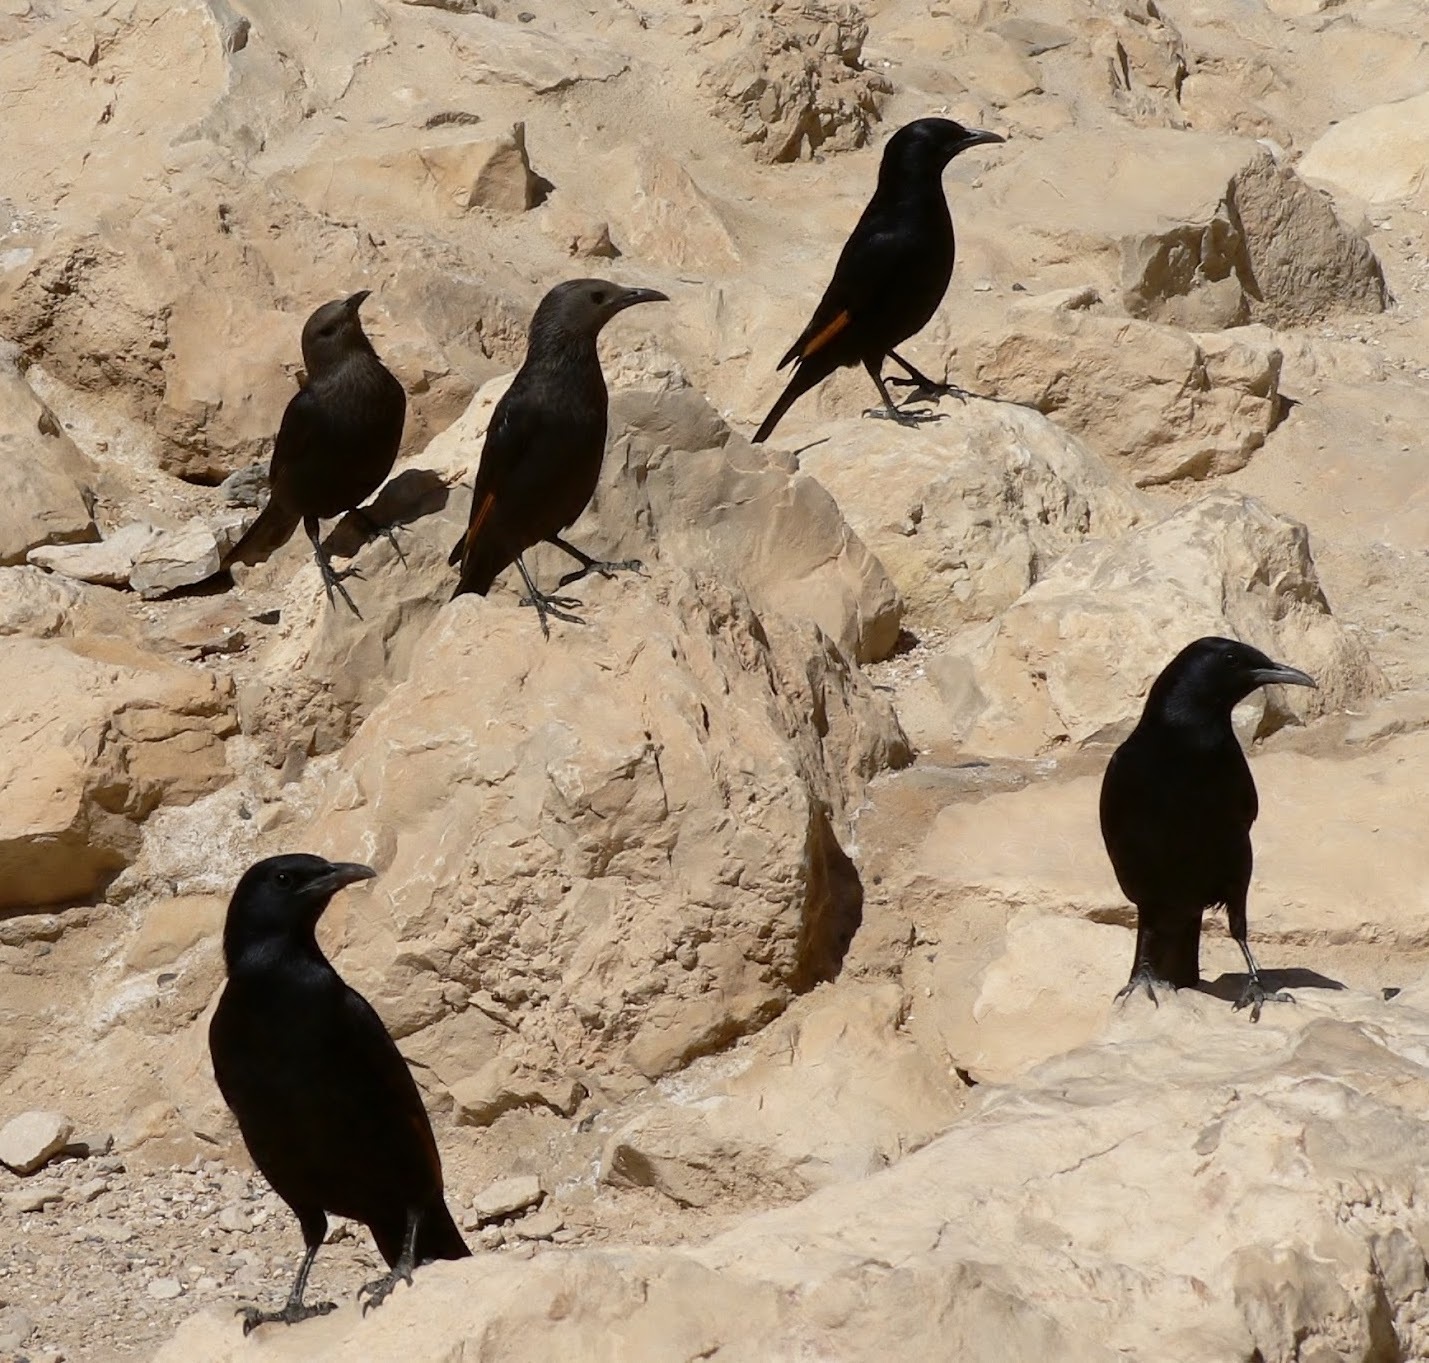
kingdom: Animalia
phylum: Chordata
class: Aves
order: Passeriformes
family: Sturnidae
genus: Onychognathus
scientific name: Onychognathus tristramii
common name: Tristram's starling
